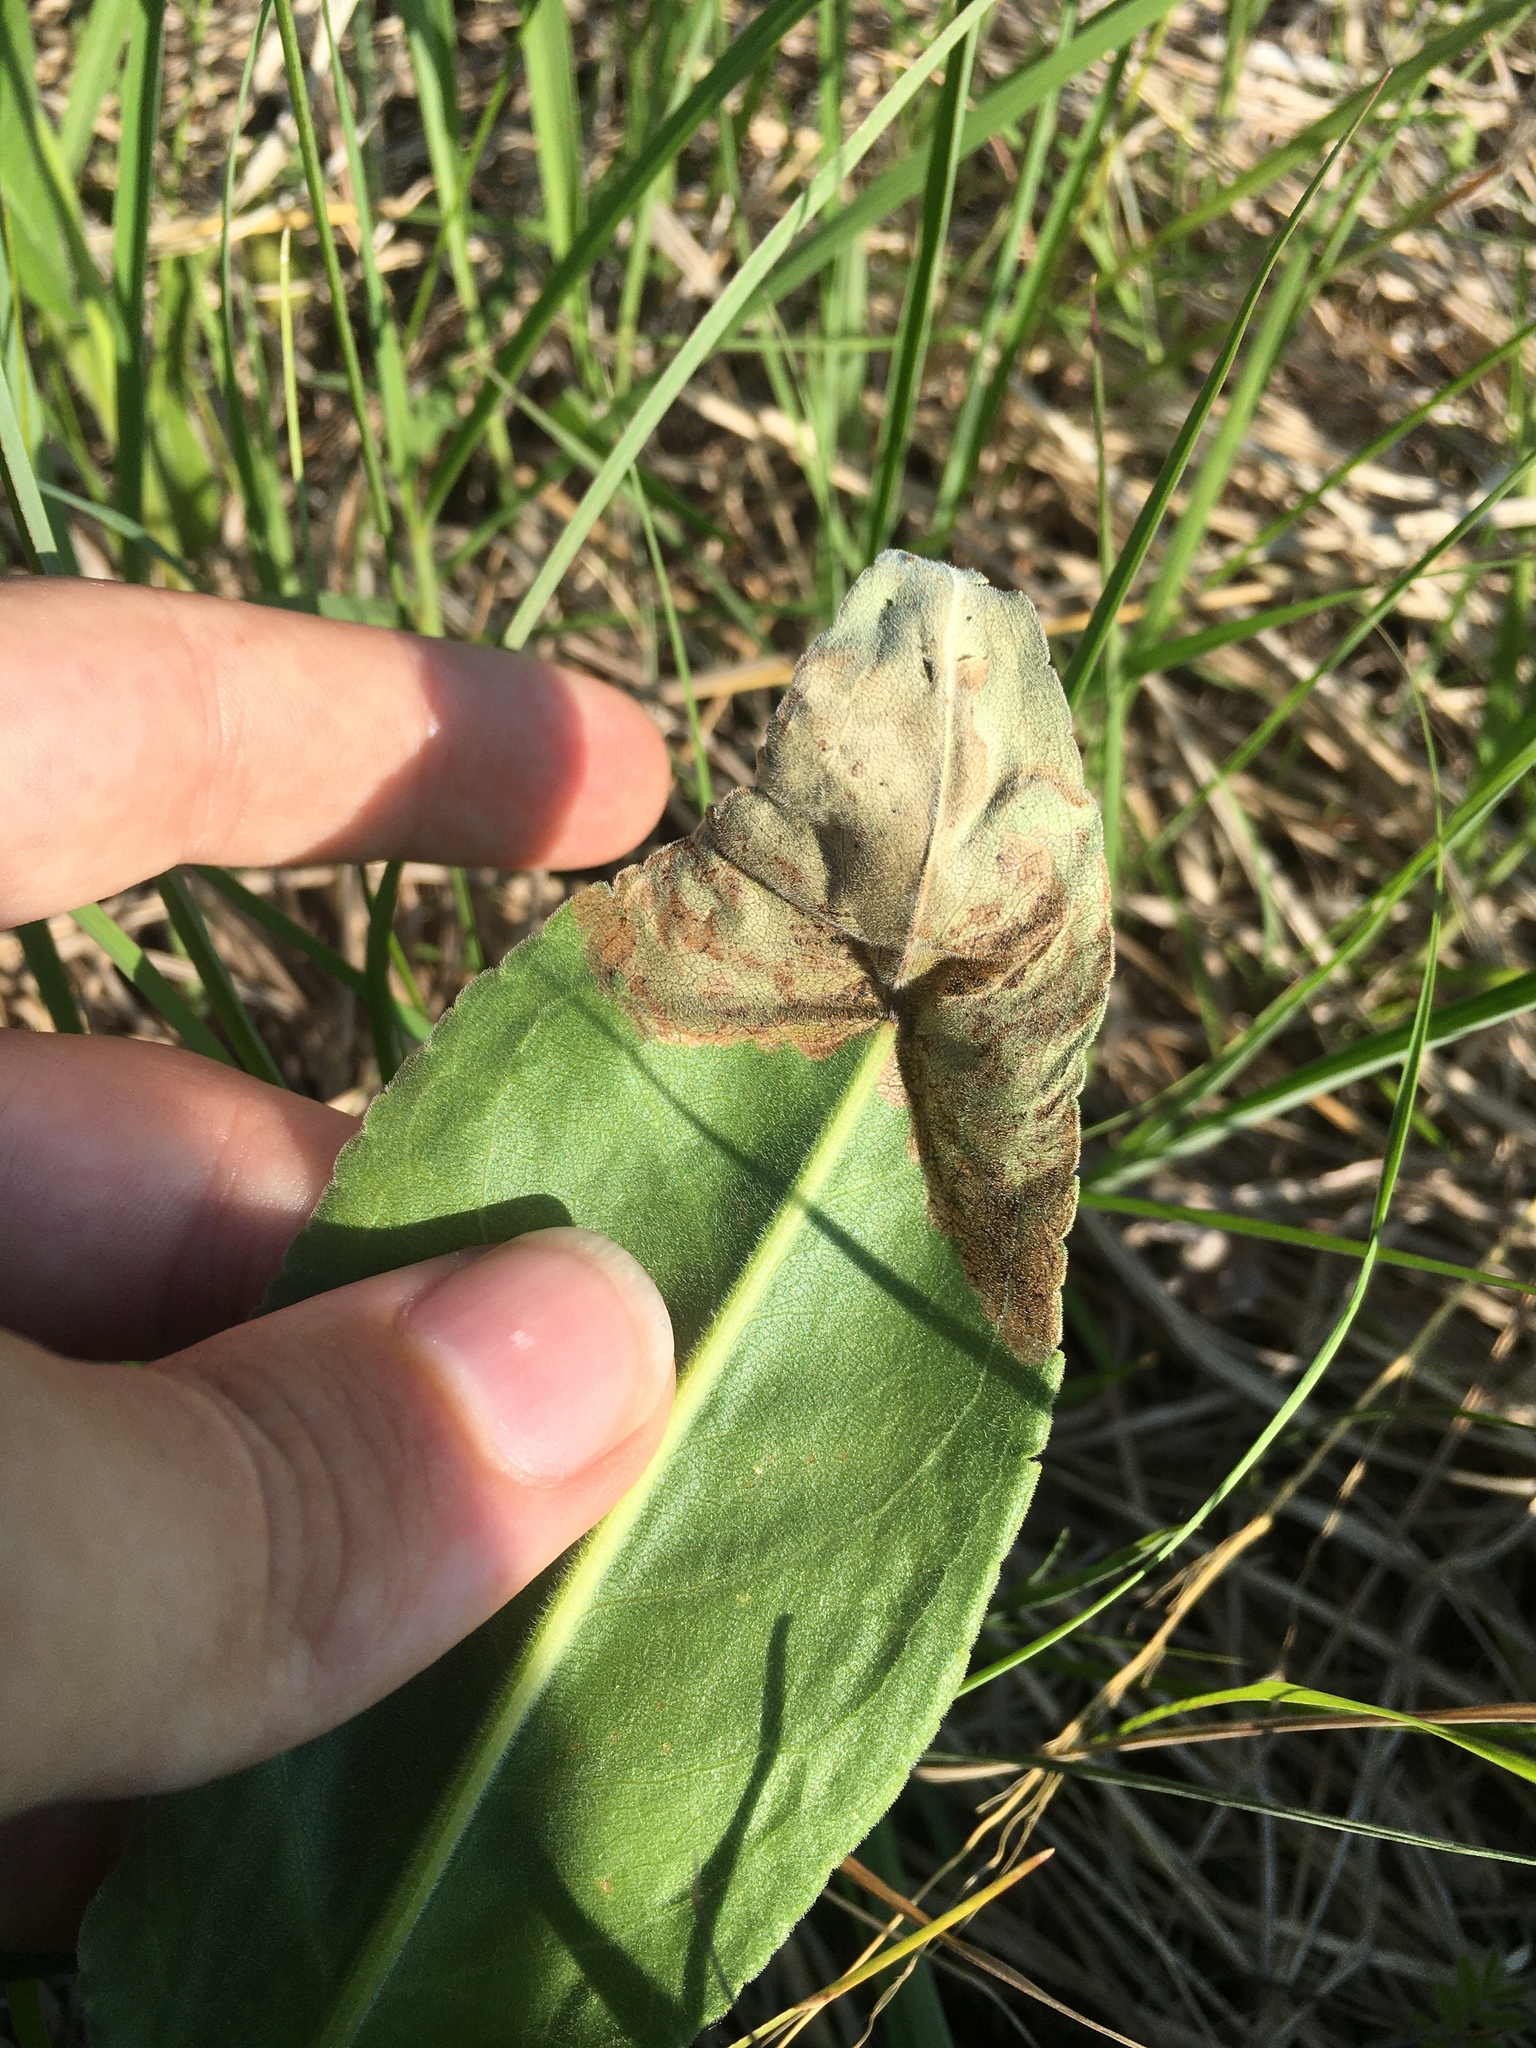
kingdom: Animalia
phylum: Arthropoda
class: Insecta
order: Coleoptera
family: Chrysomelidae
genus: Microrhopala
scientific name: Microrhopala vittata
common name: Goldenrod leaf miner beetle
